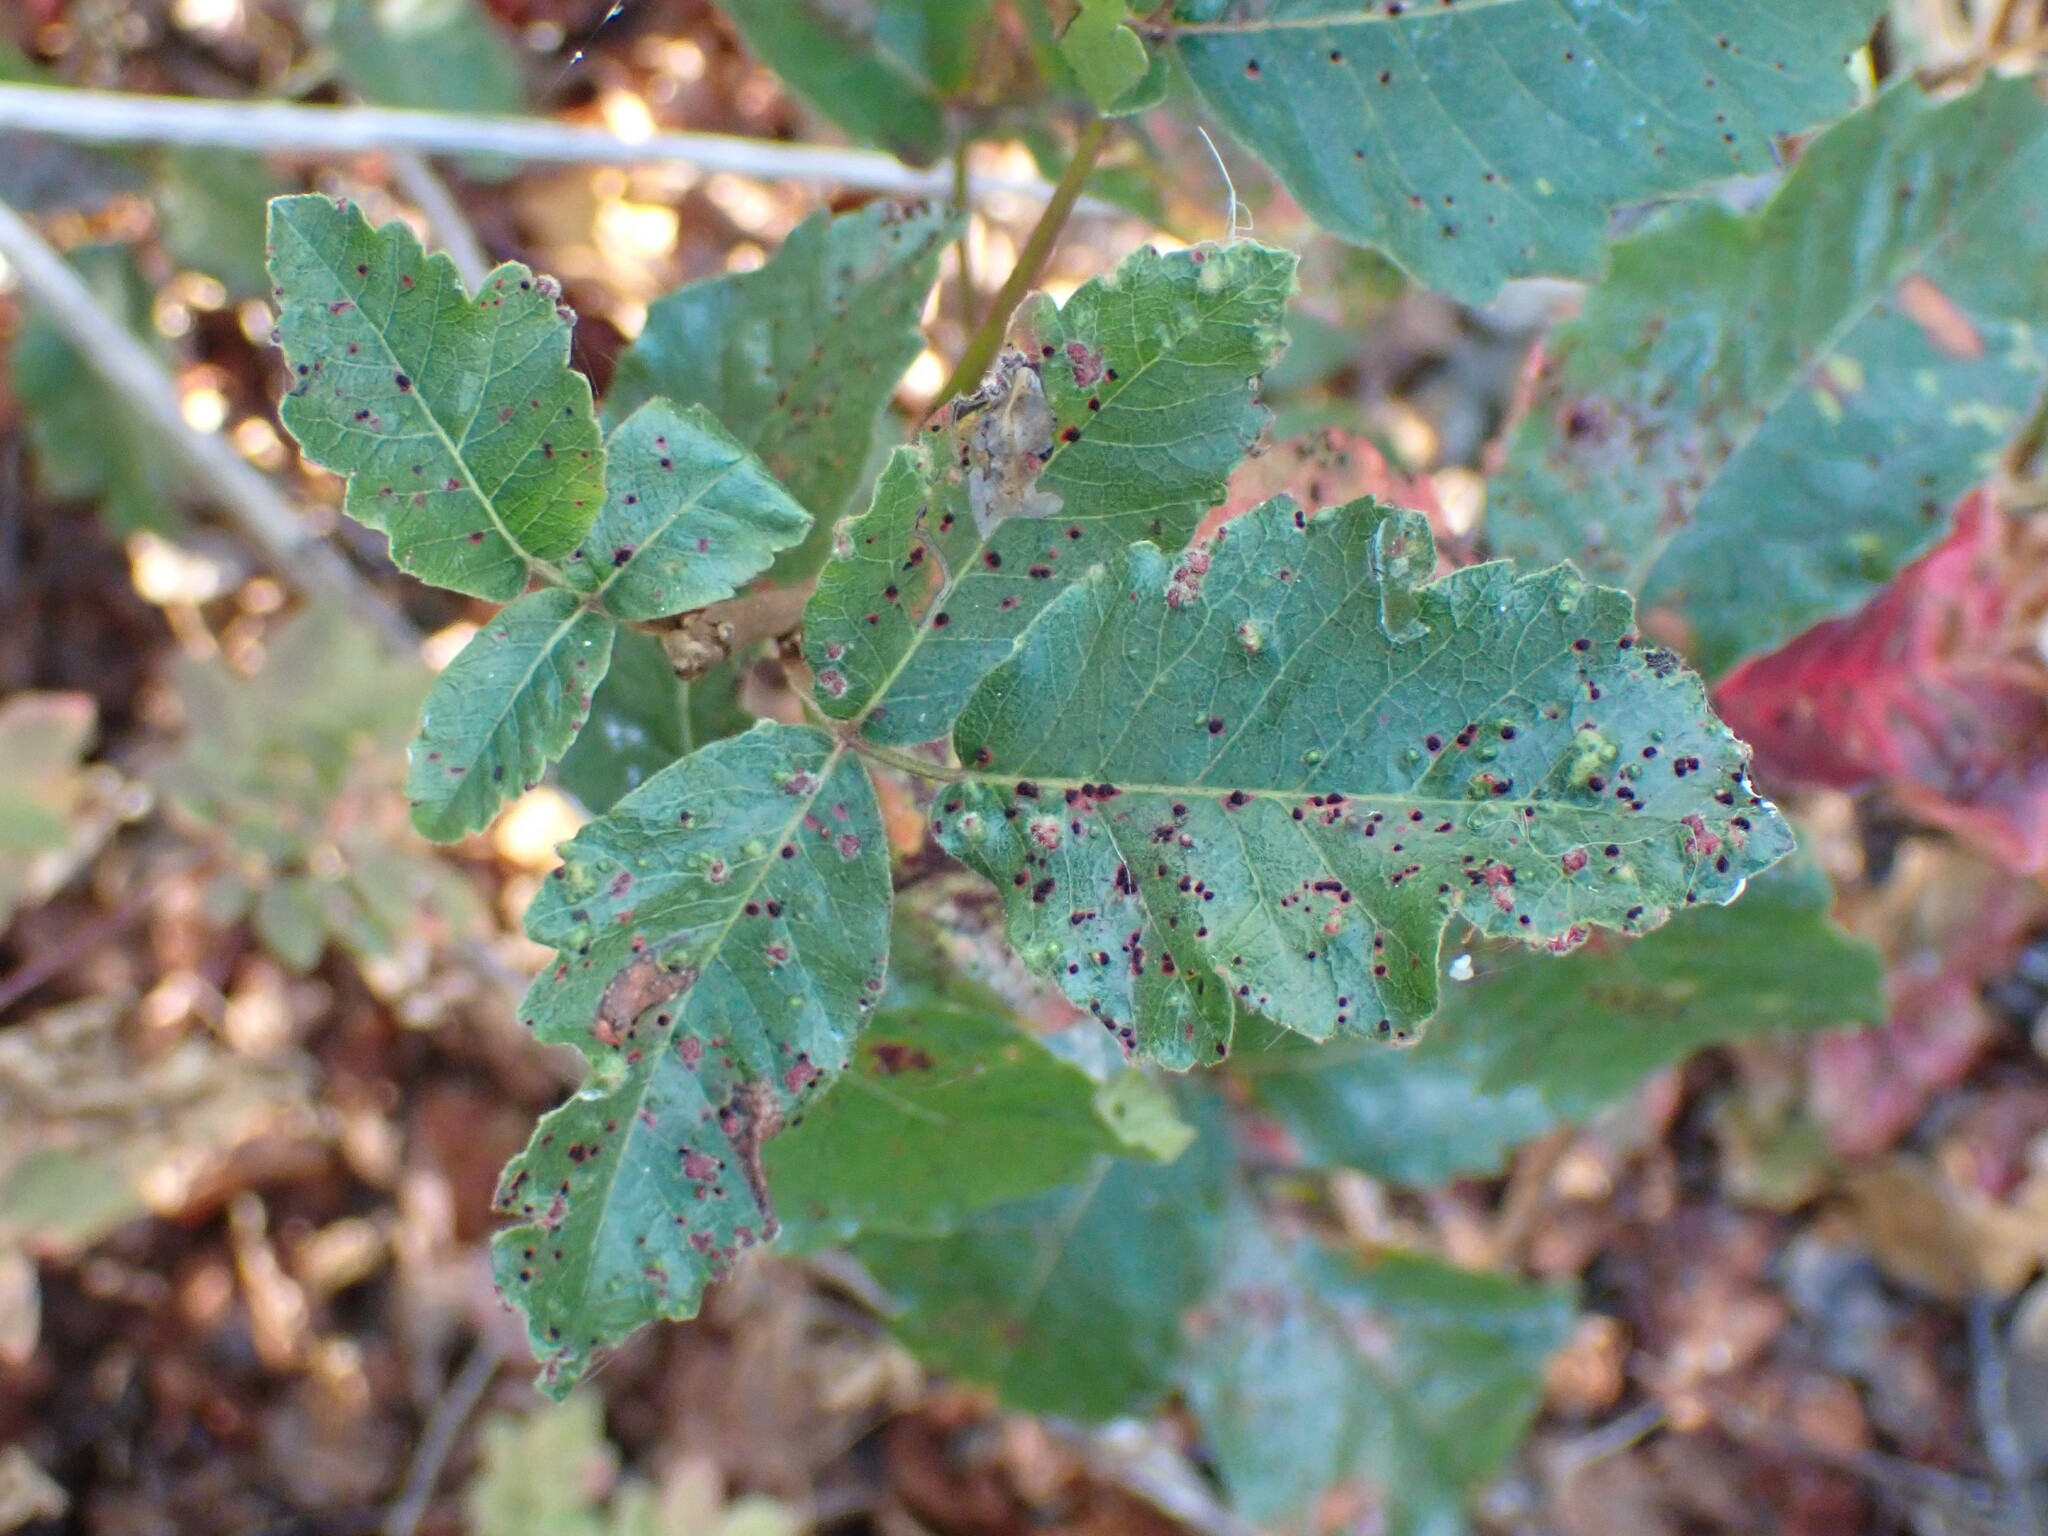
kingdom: Animalia
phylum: Arthropoda
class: Arachnida
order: Trombidiformes
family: Eriophyidae
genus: Aculops
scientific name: Aculops
